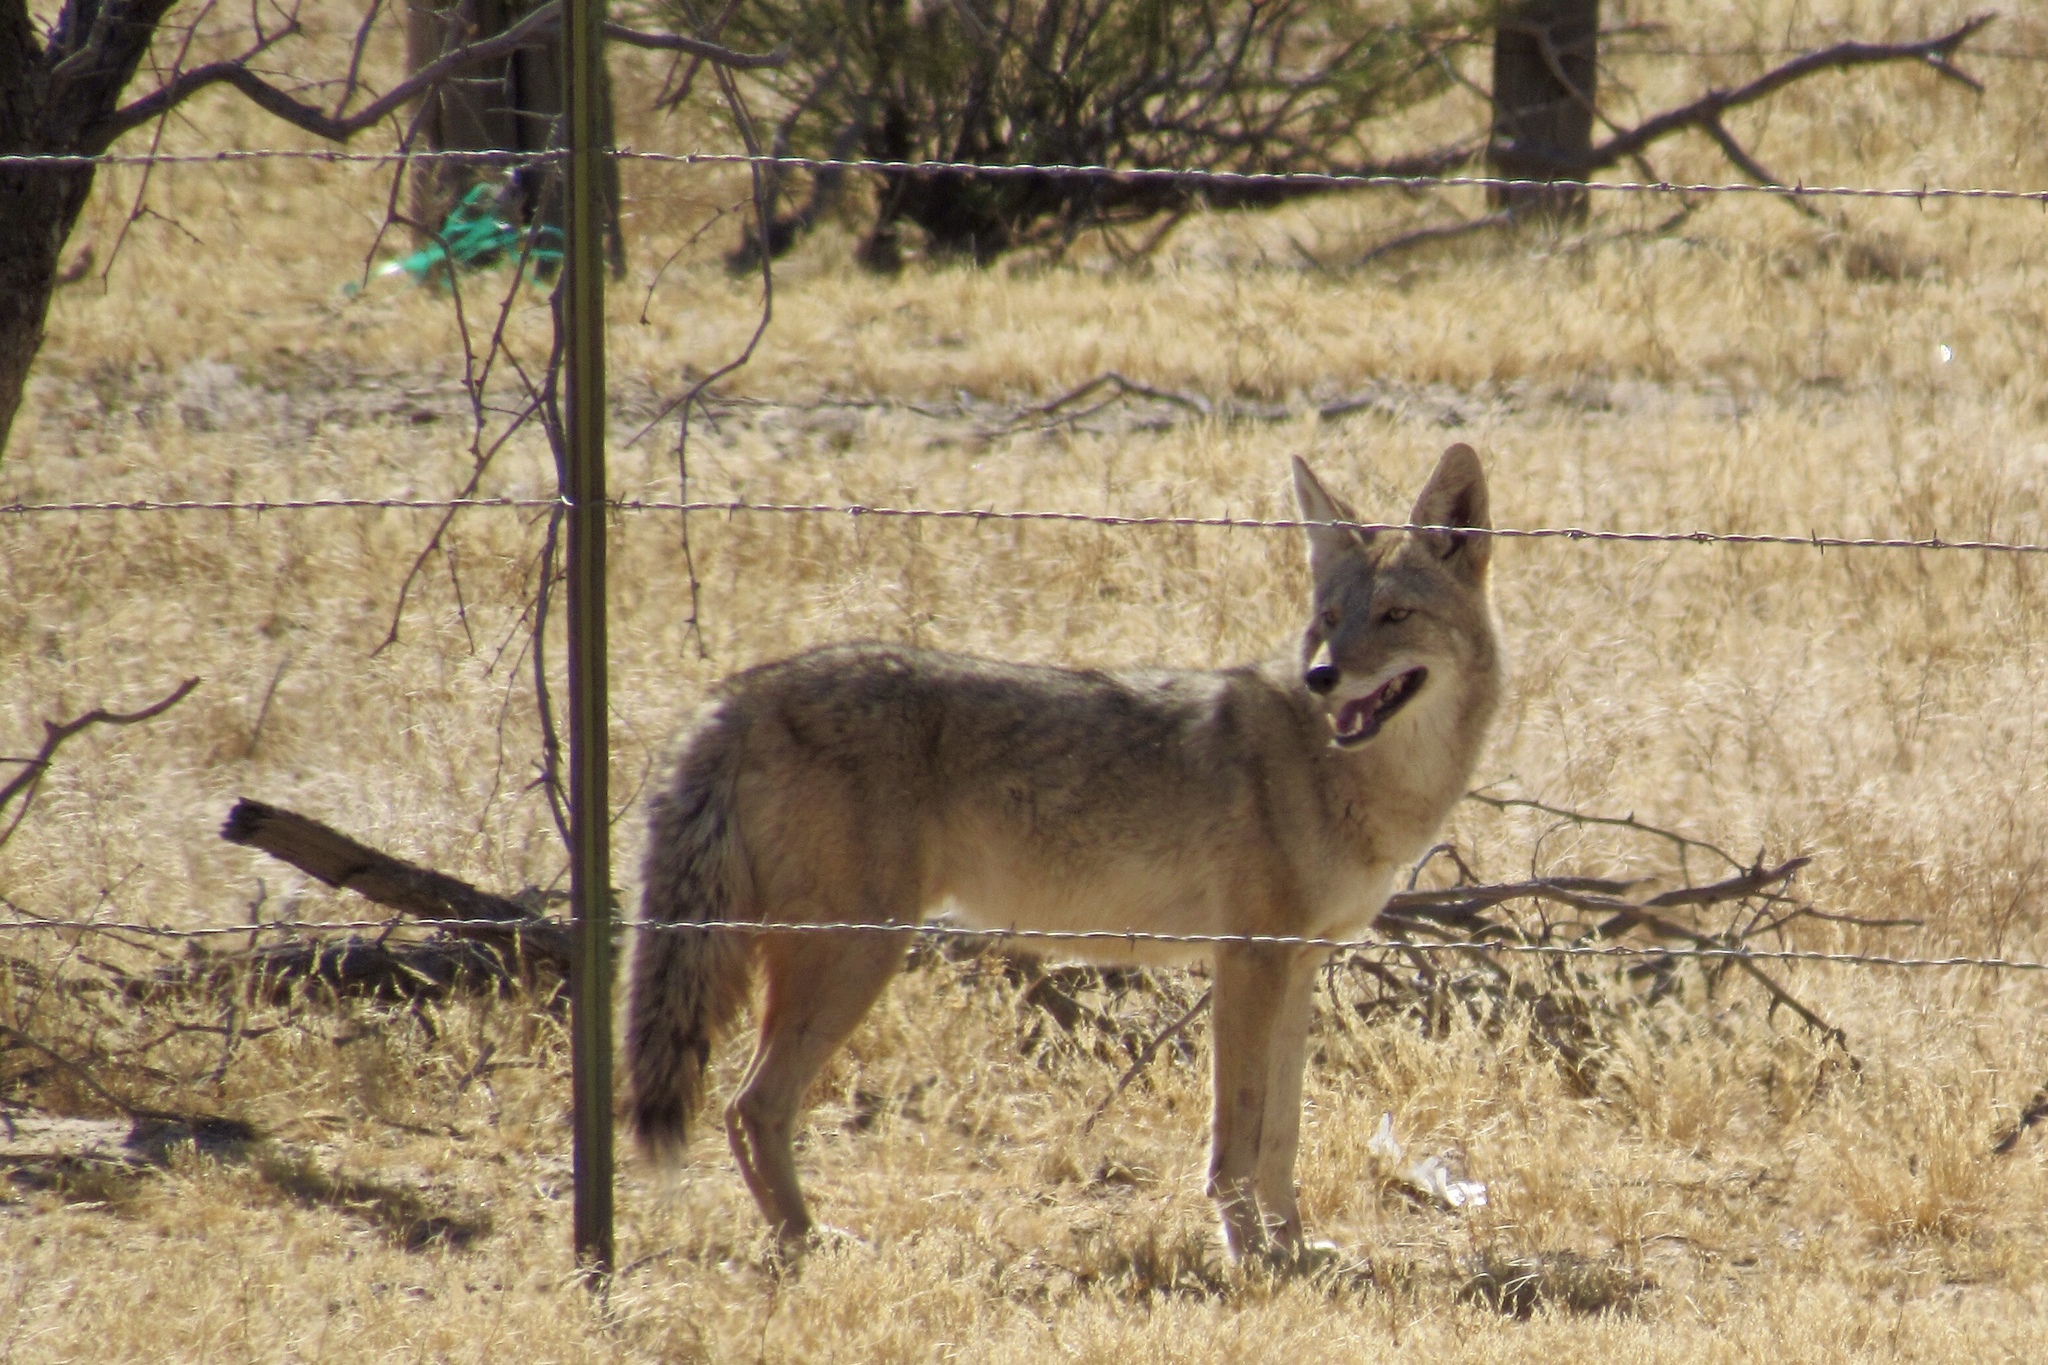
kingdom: Animalia
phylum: Chordata
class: Mammalia
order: Carnivora
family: Canidae
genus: Canis
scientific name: Canis latrans
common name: Coyote
